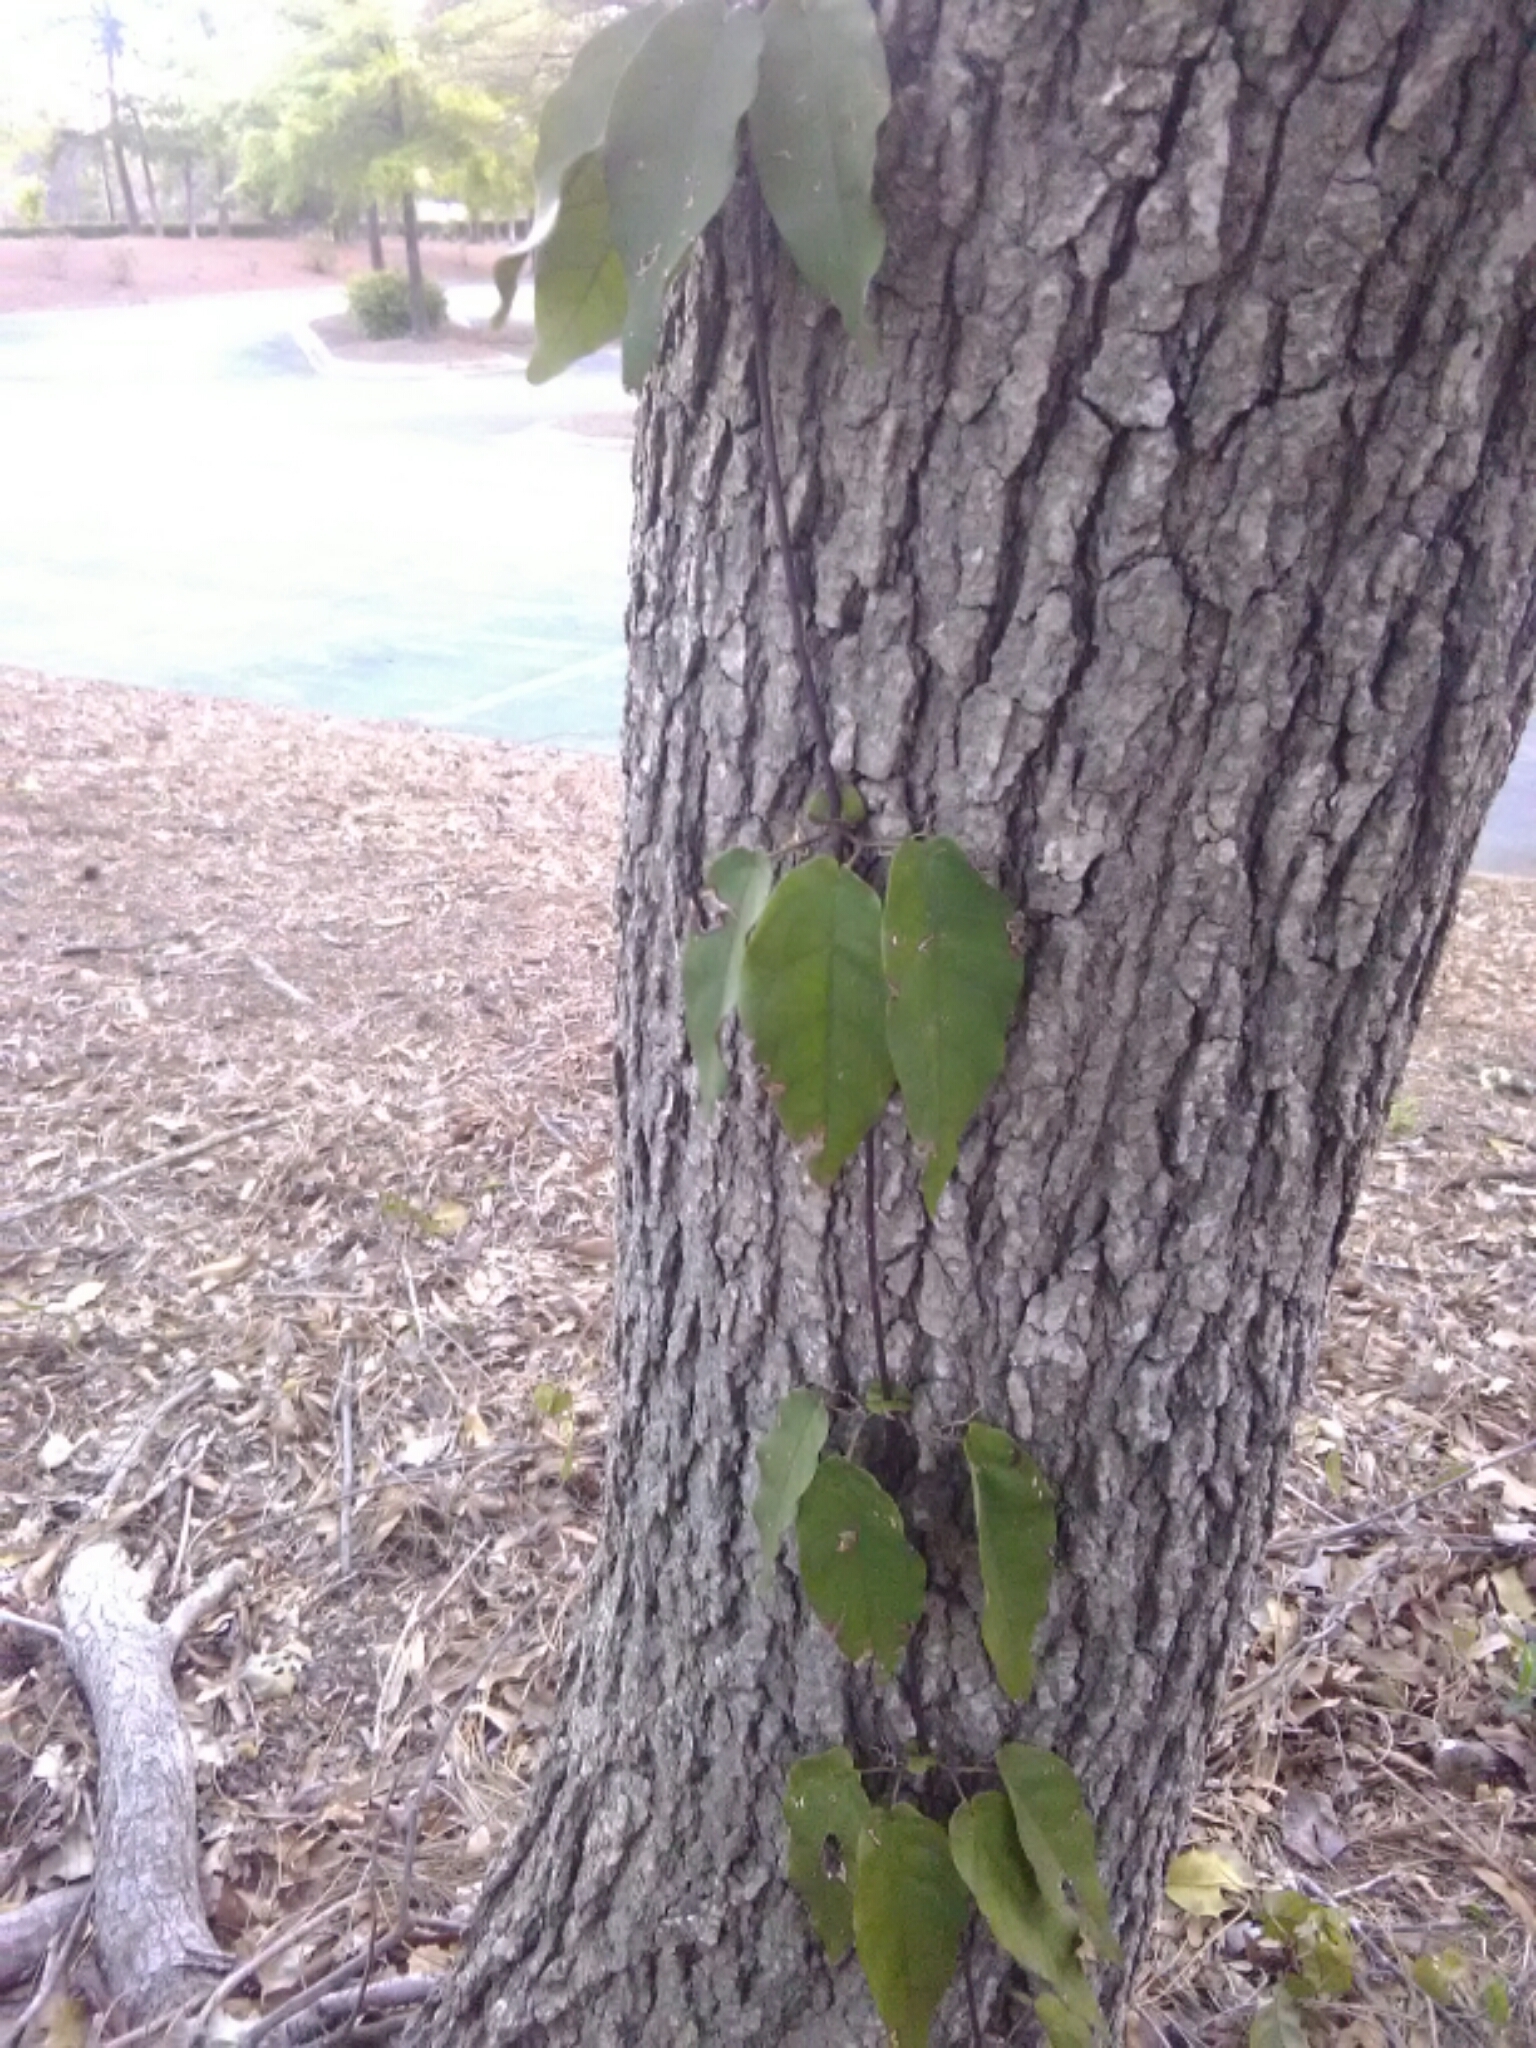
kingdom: Plantae
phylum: Tracheophyta
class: Magnoliopsida
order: Lamiales
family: Bignoniaceae
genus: Bignonia
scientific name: Bignonia capreolata
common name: Crossvine
